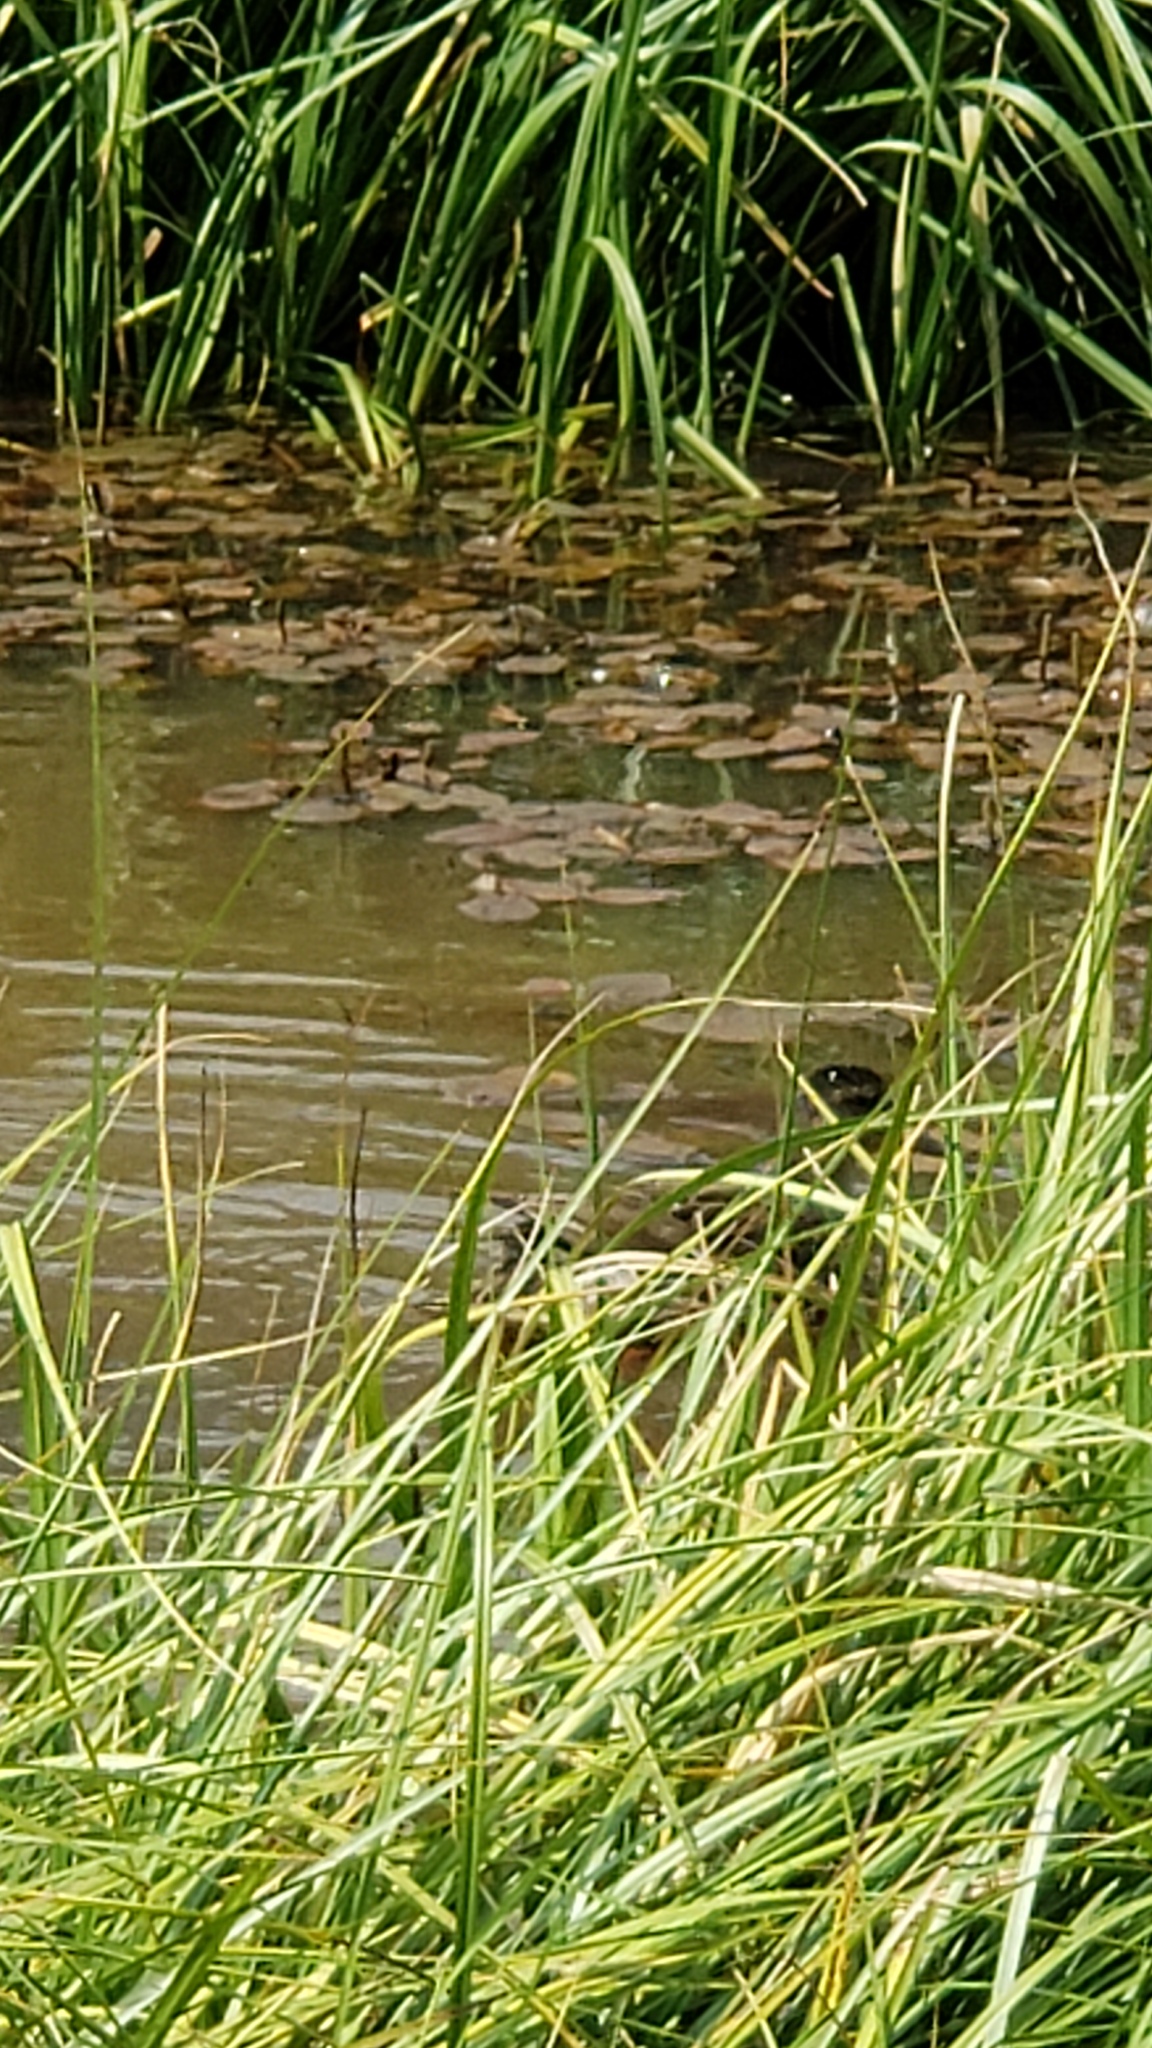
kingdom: Animalia
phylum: Chordata
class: Aves
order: Anseriformes
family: Anatidae
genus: Anas
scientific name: Anas platyrhynchos
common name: Mallard
